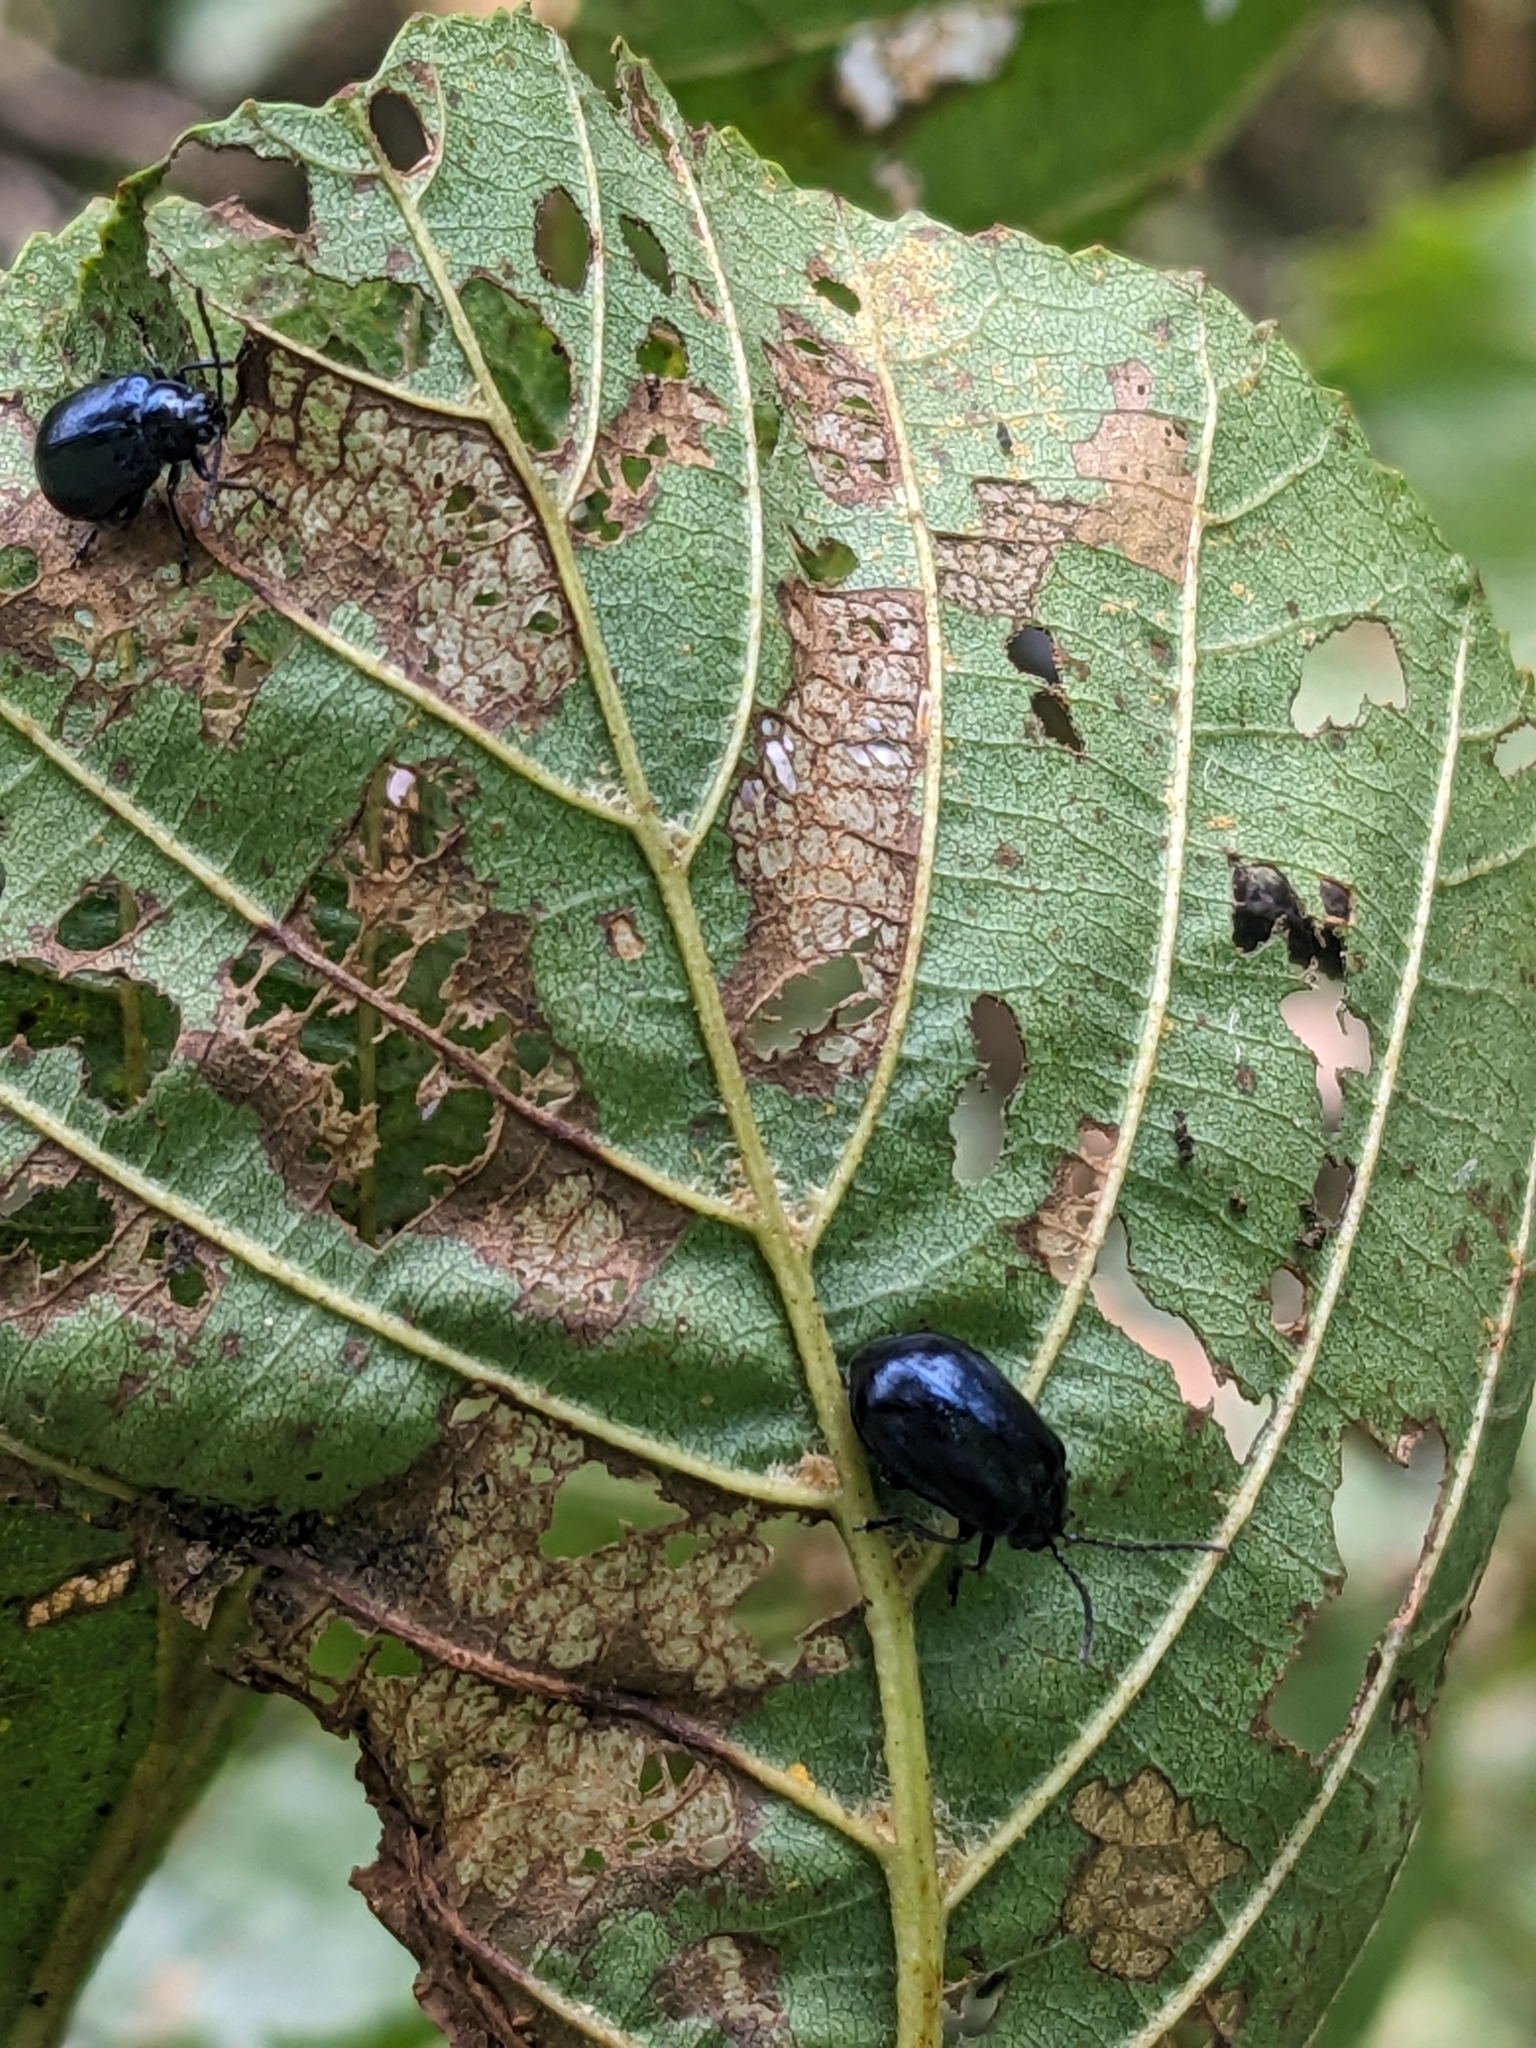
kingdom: Animalia
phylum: Arthropoda
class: Insecta
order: Coleoptera
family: Chrysomelidae
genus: Agelastica
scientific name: Agelastica alni
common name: Alder leaf beetle
